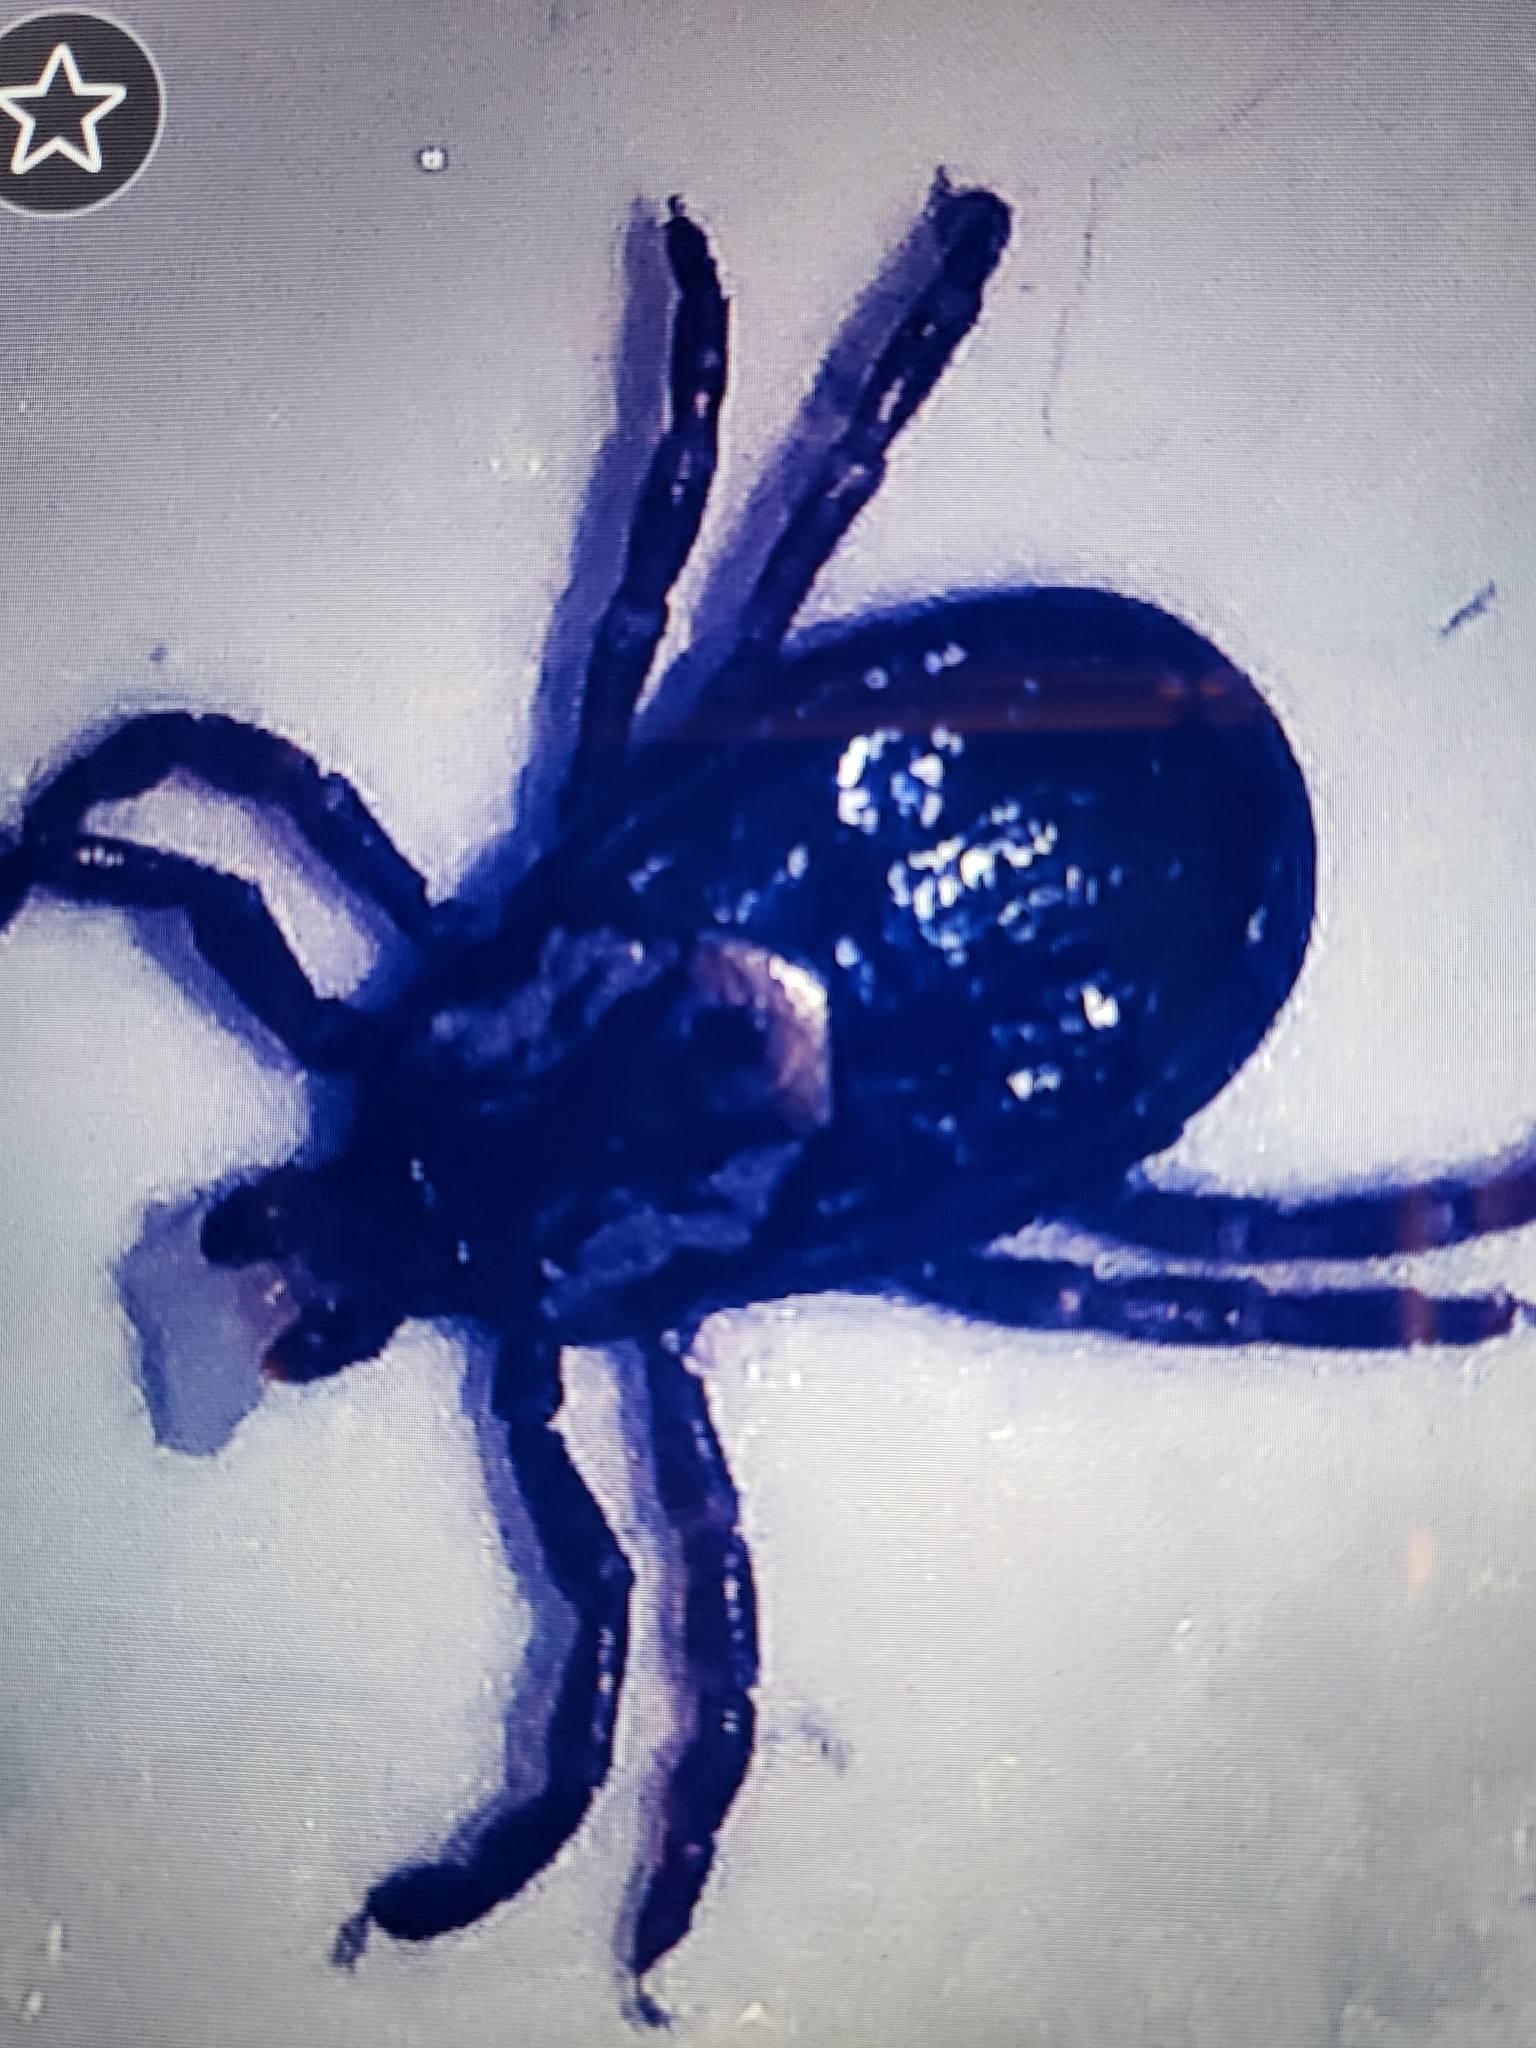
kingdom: Animalia
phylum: Arthropoda
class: Arachnida
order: Ixodida
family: Ixodidae
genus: Dermacentor
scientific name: Dermacentor variabilis
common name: American dog tick
